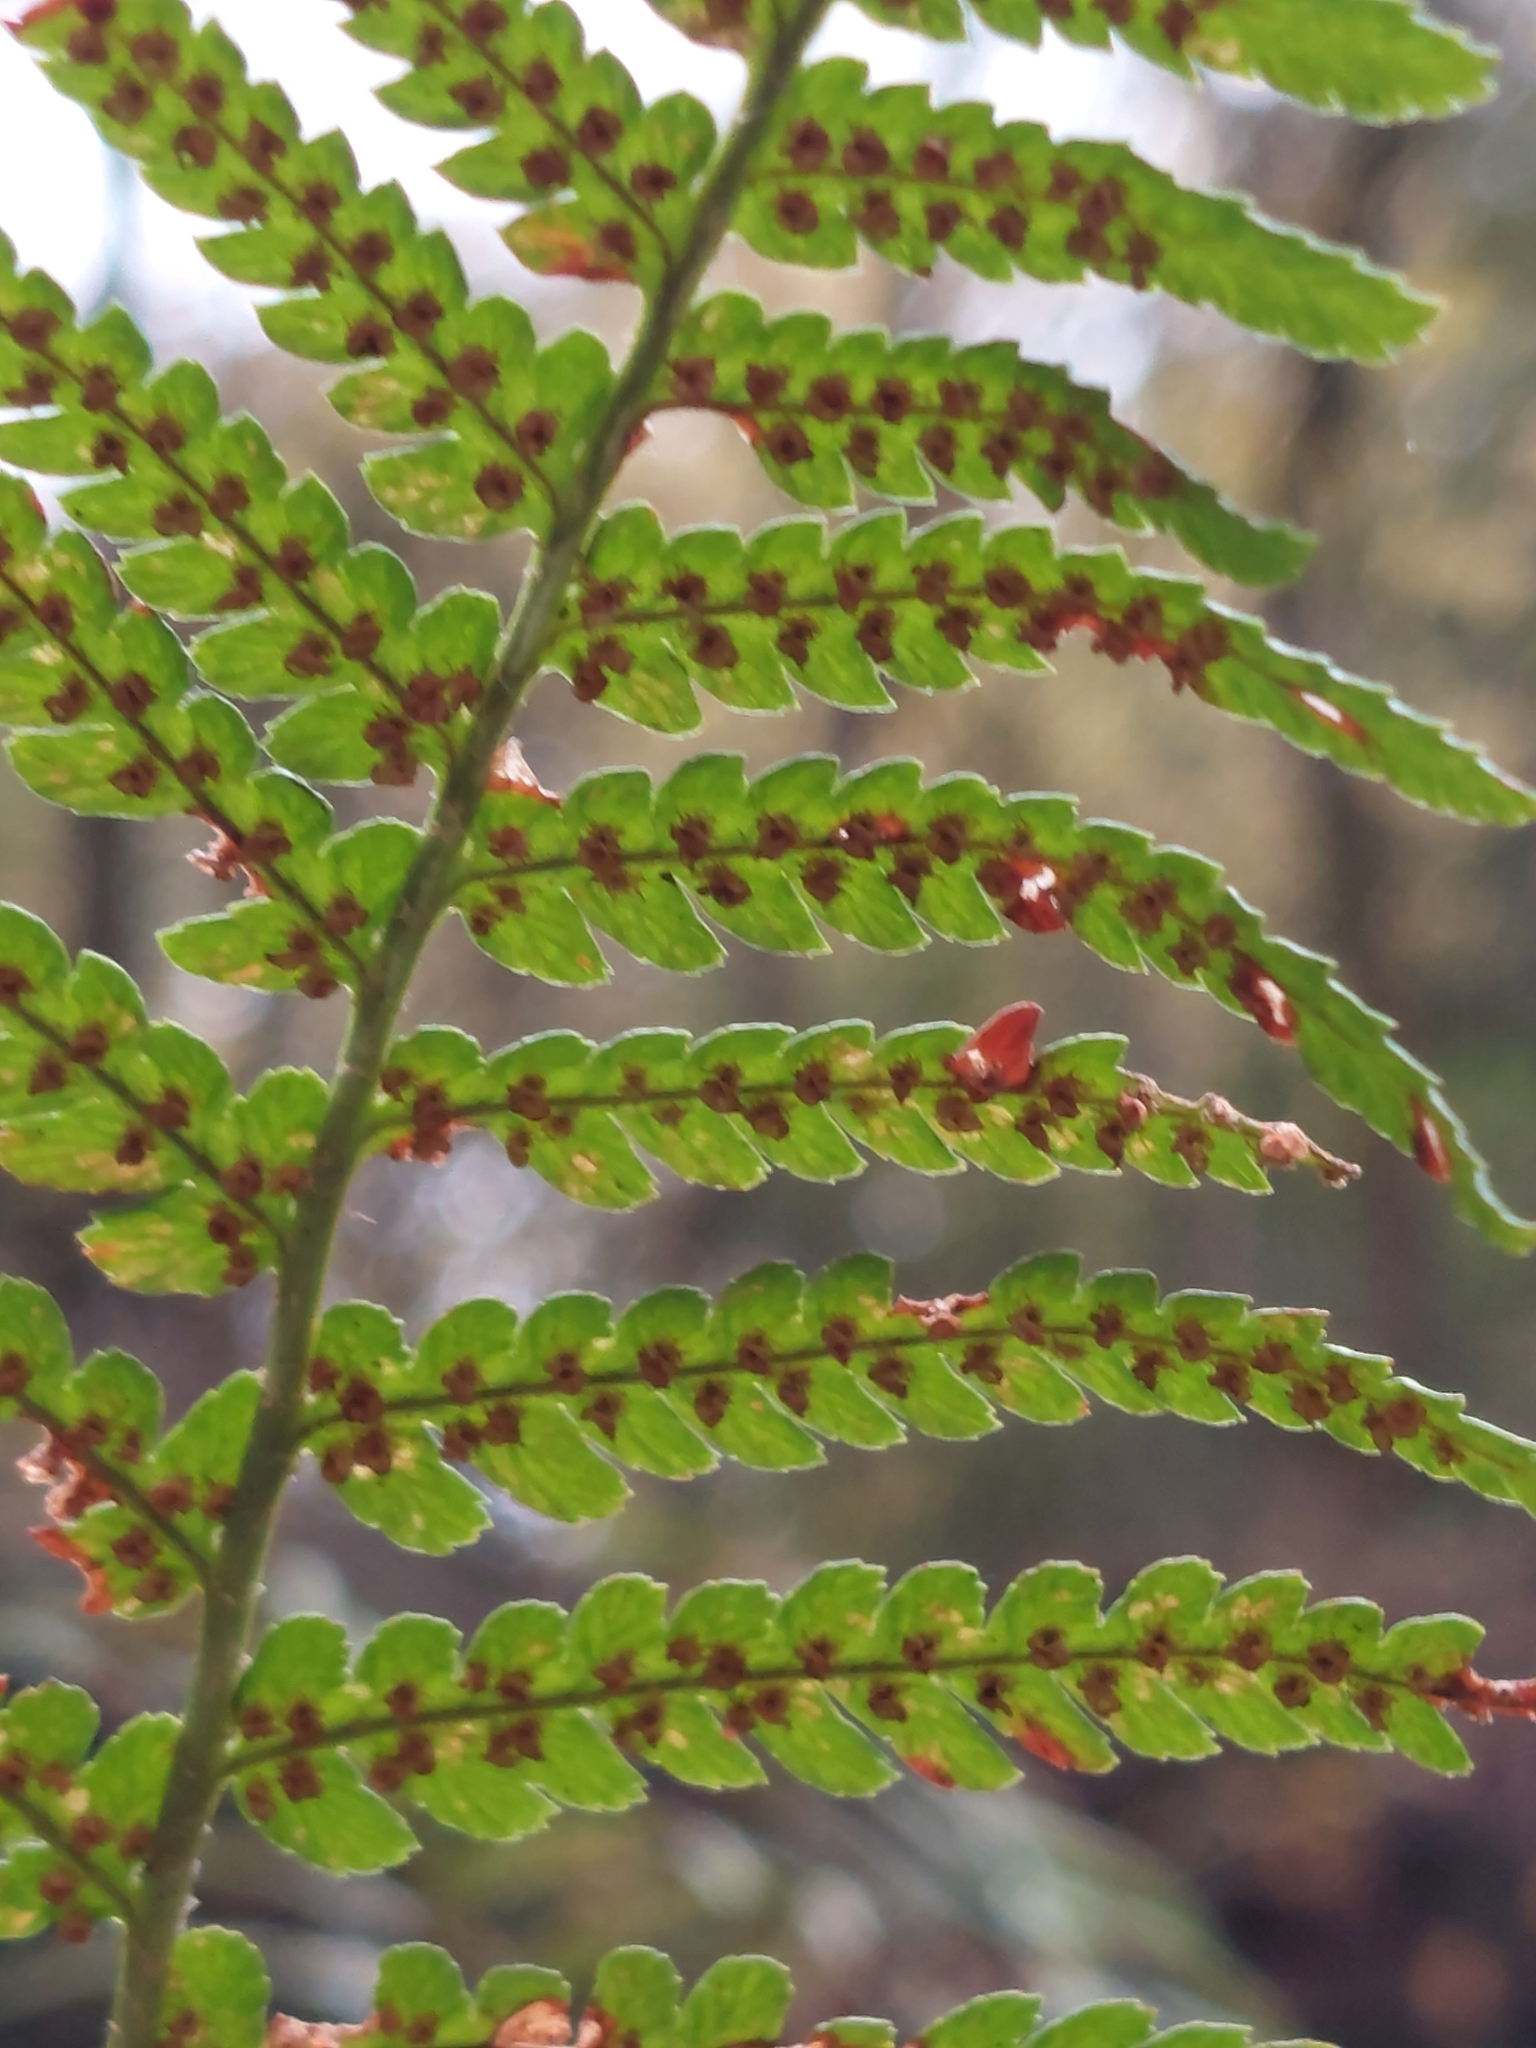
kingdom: Plantae
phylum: Tracheophyta
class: Polypodiopsida
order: Polypodiales
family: Dryopteridaceae
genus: Dryopteris
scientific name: Dryopteris filix-mas
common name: Male fern
